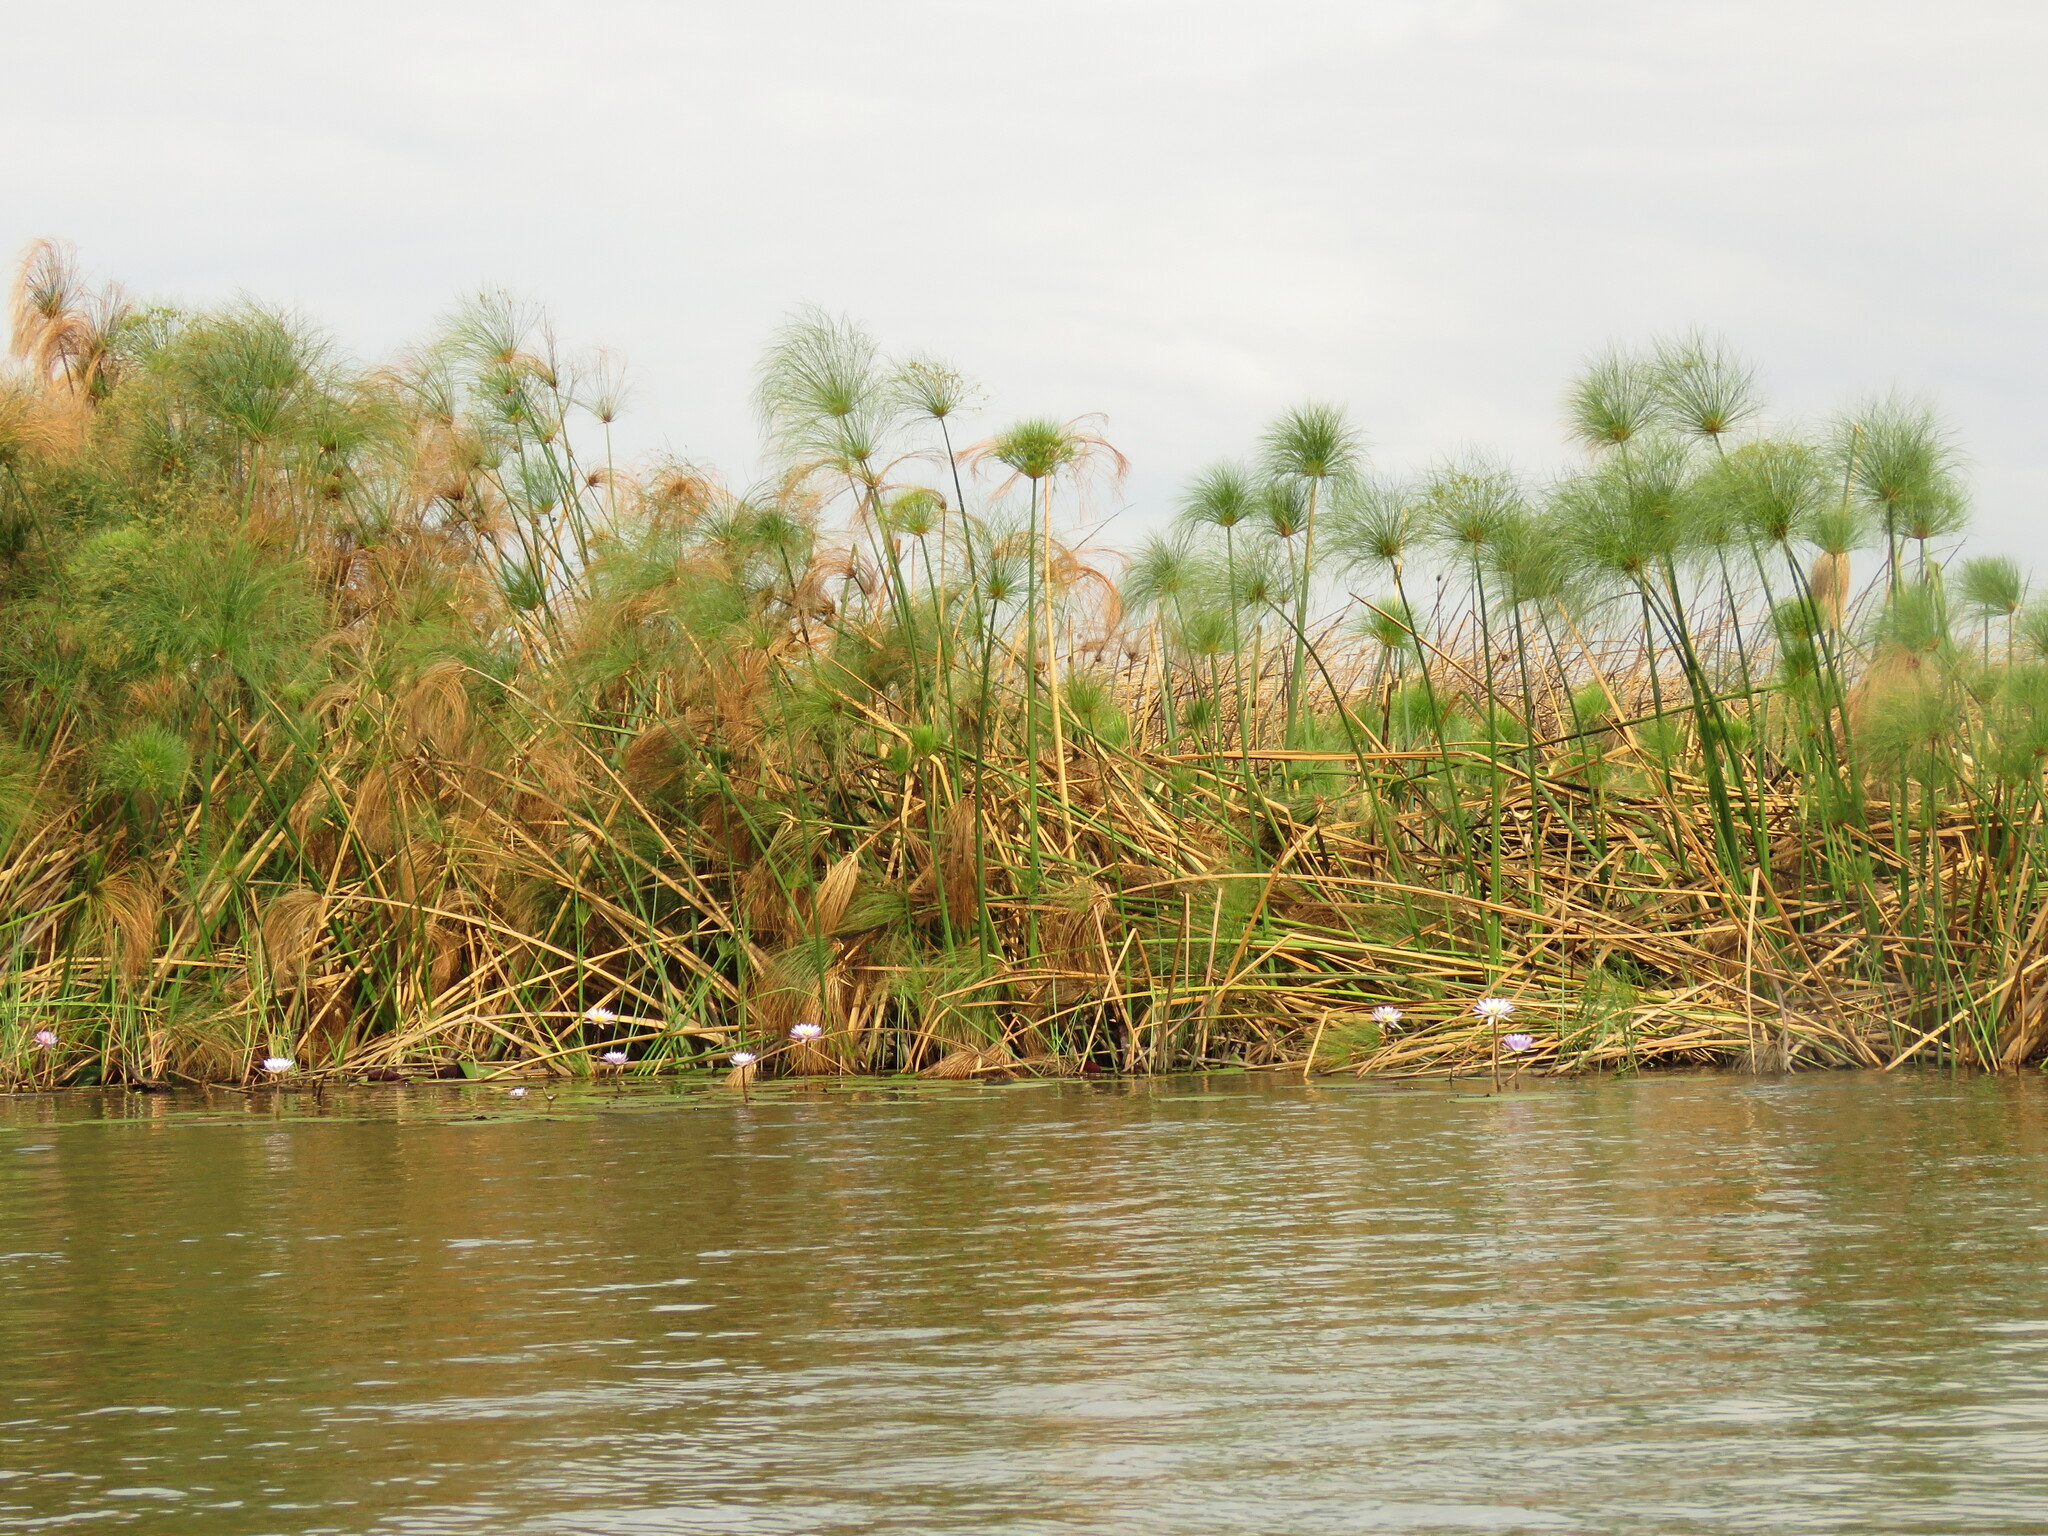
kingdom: Plantae
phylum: Tracheophyta
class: Liliopsida
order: Poales
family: Cyperaceae
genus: Cyperus
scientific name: Cyperus papyrus
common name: Papyrus
